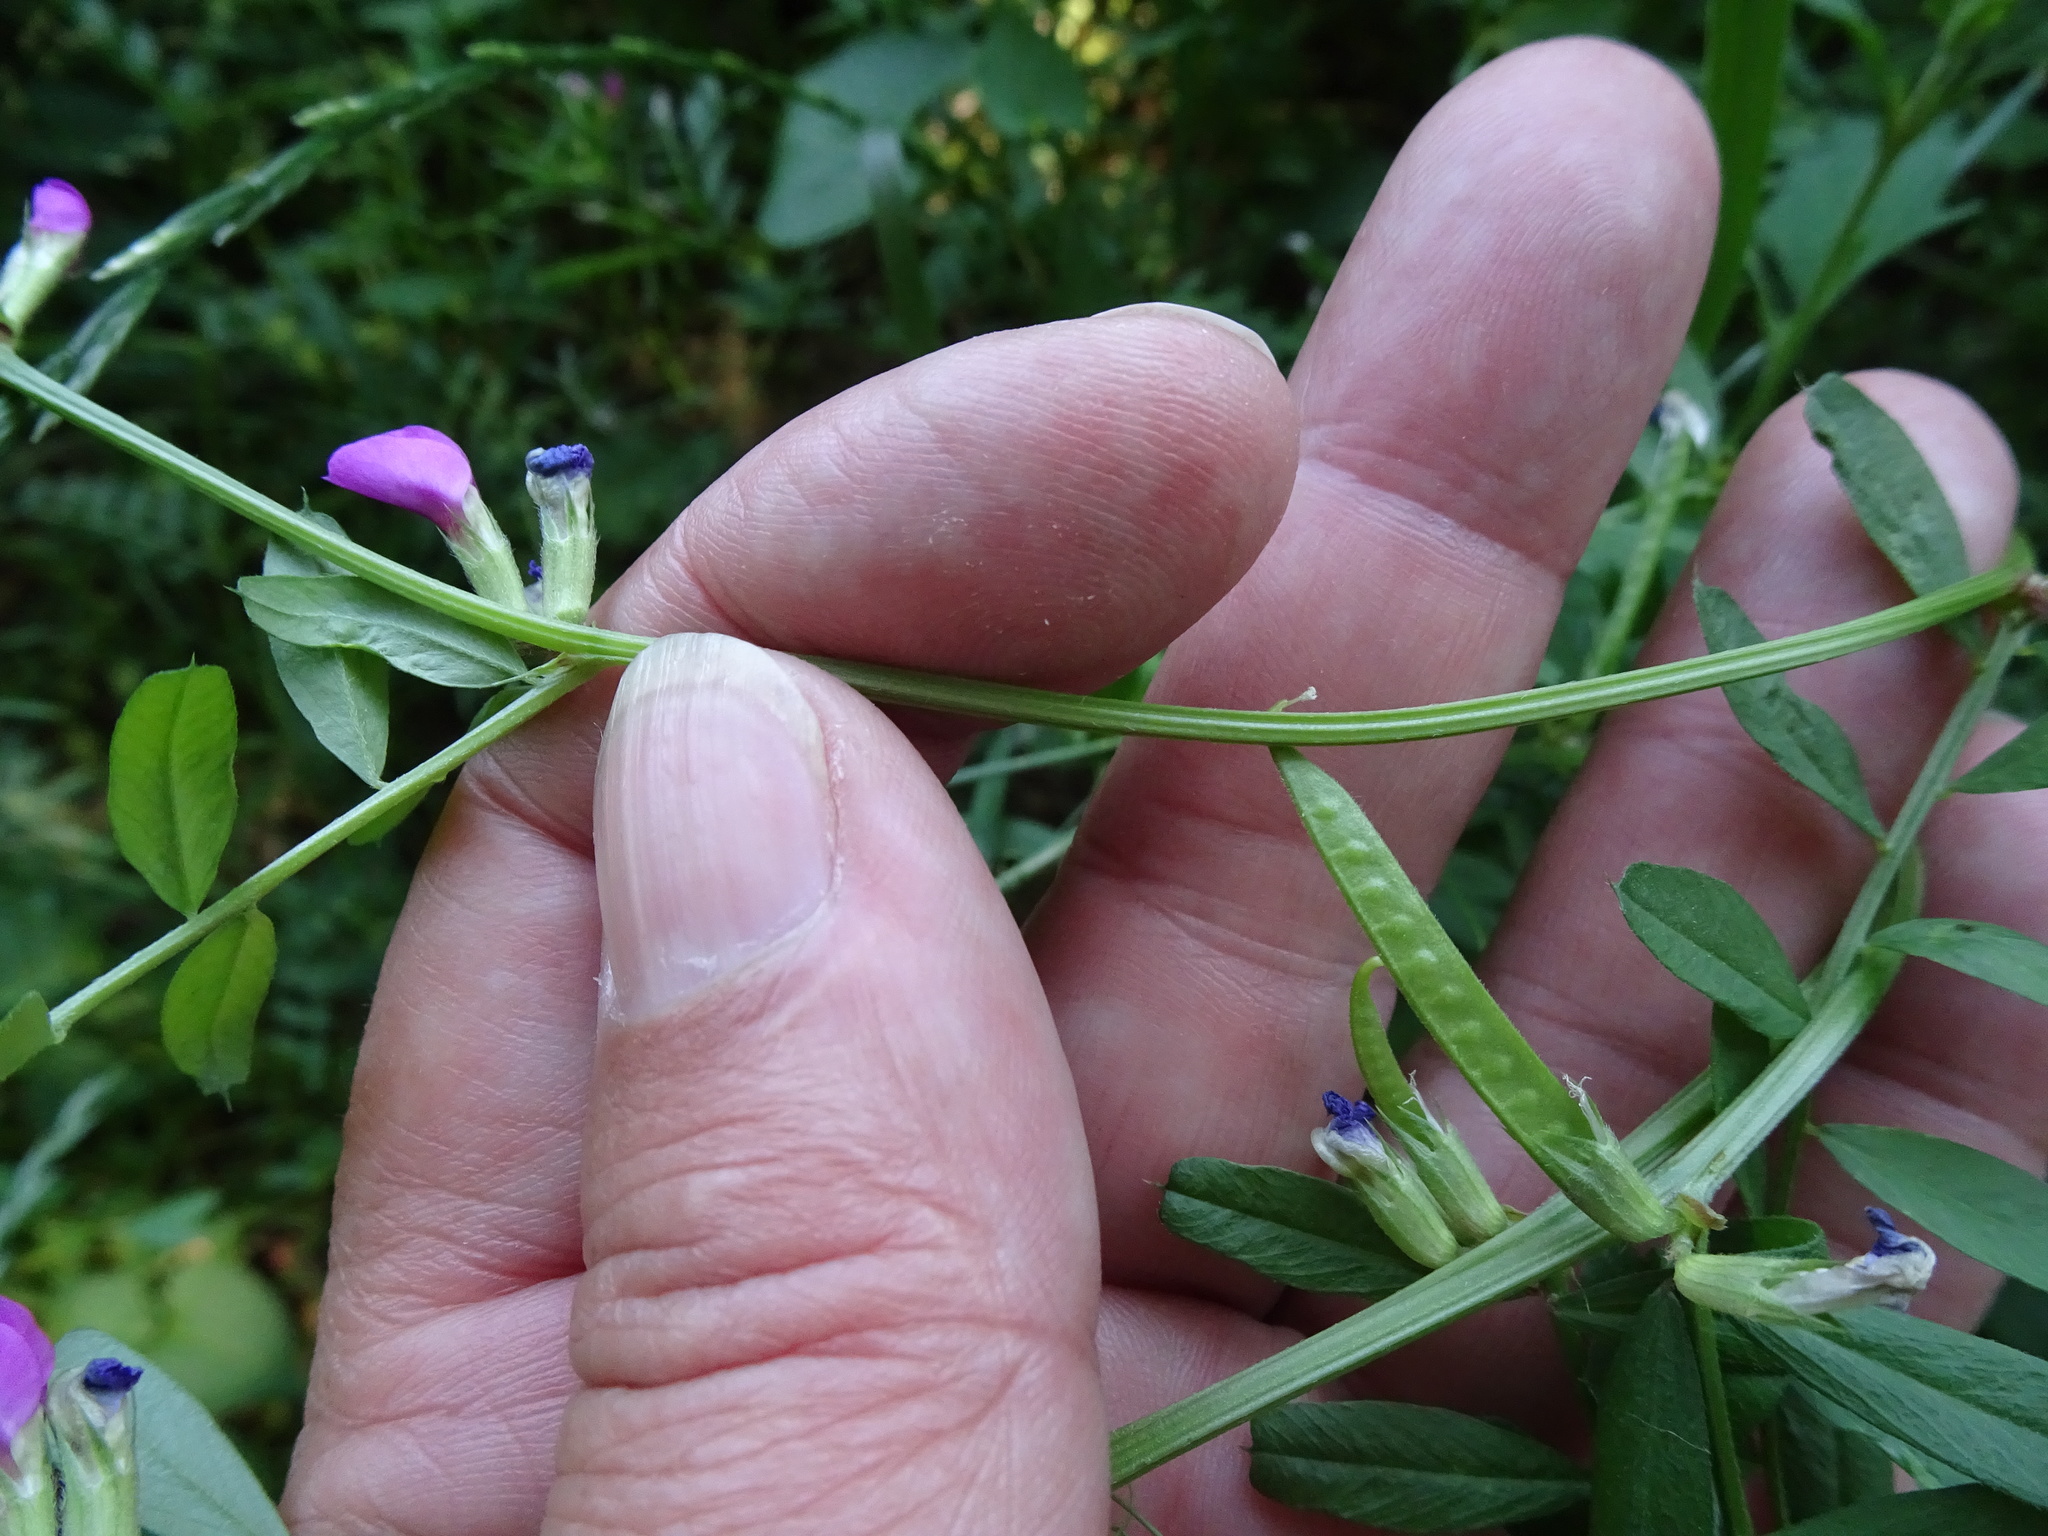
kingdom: Plantae
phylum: Tracheophyta
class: Magnoliopsida
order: Fabales
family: Fabaceae
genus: Vicia
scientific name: Vicia sativa
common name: Garden vetch
